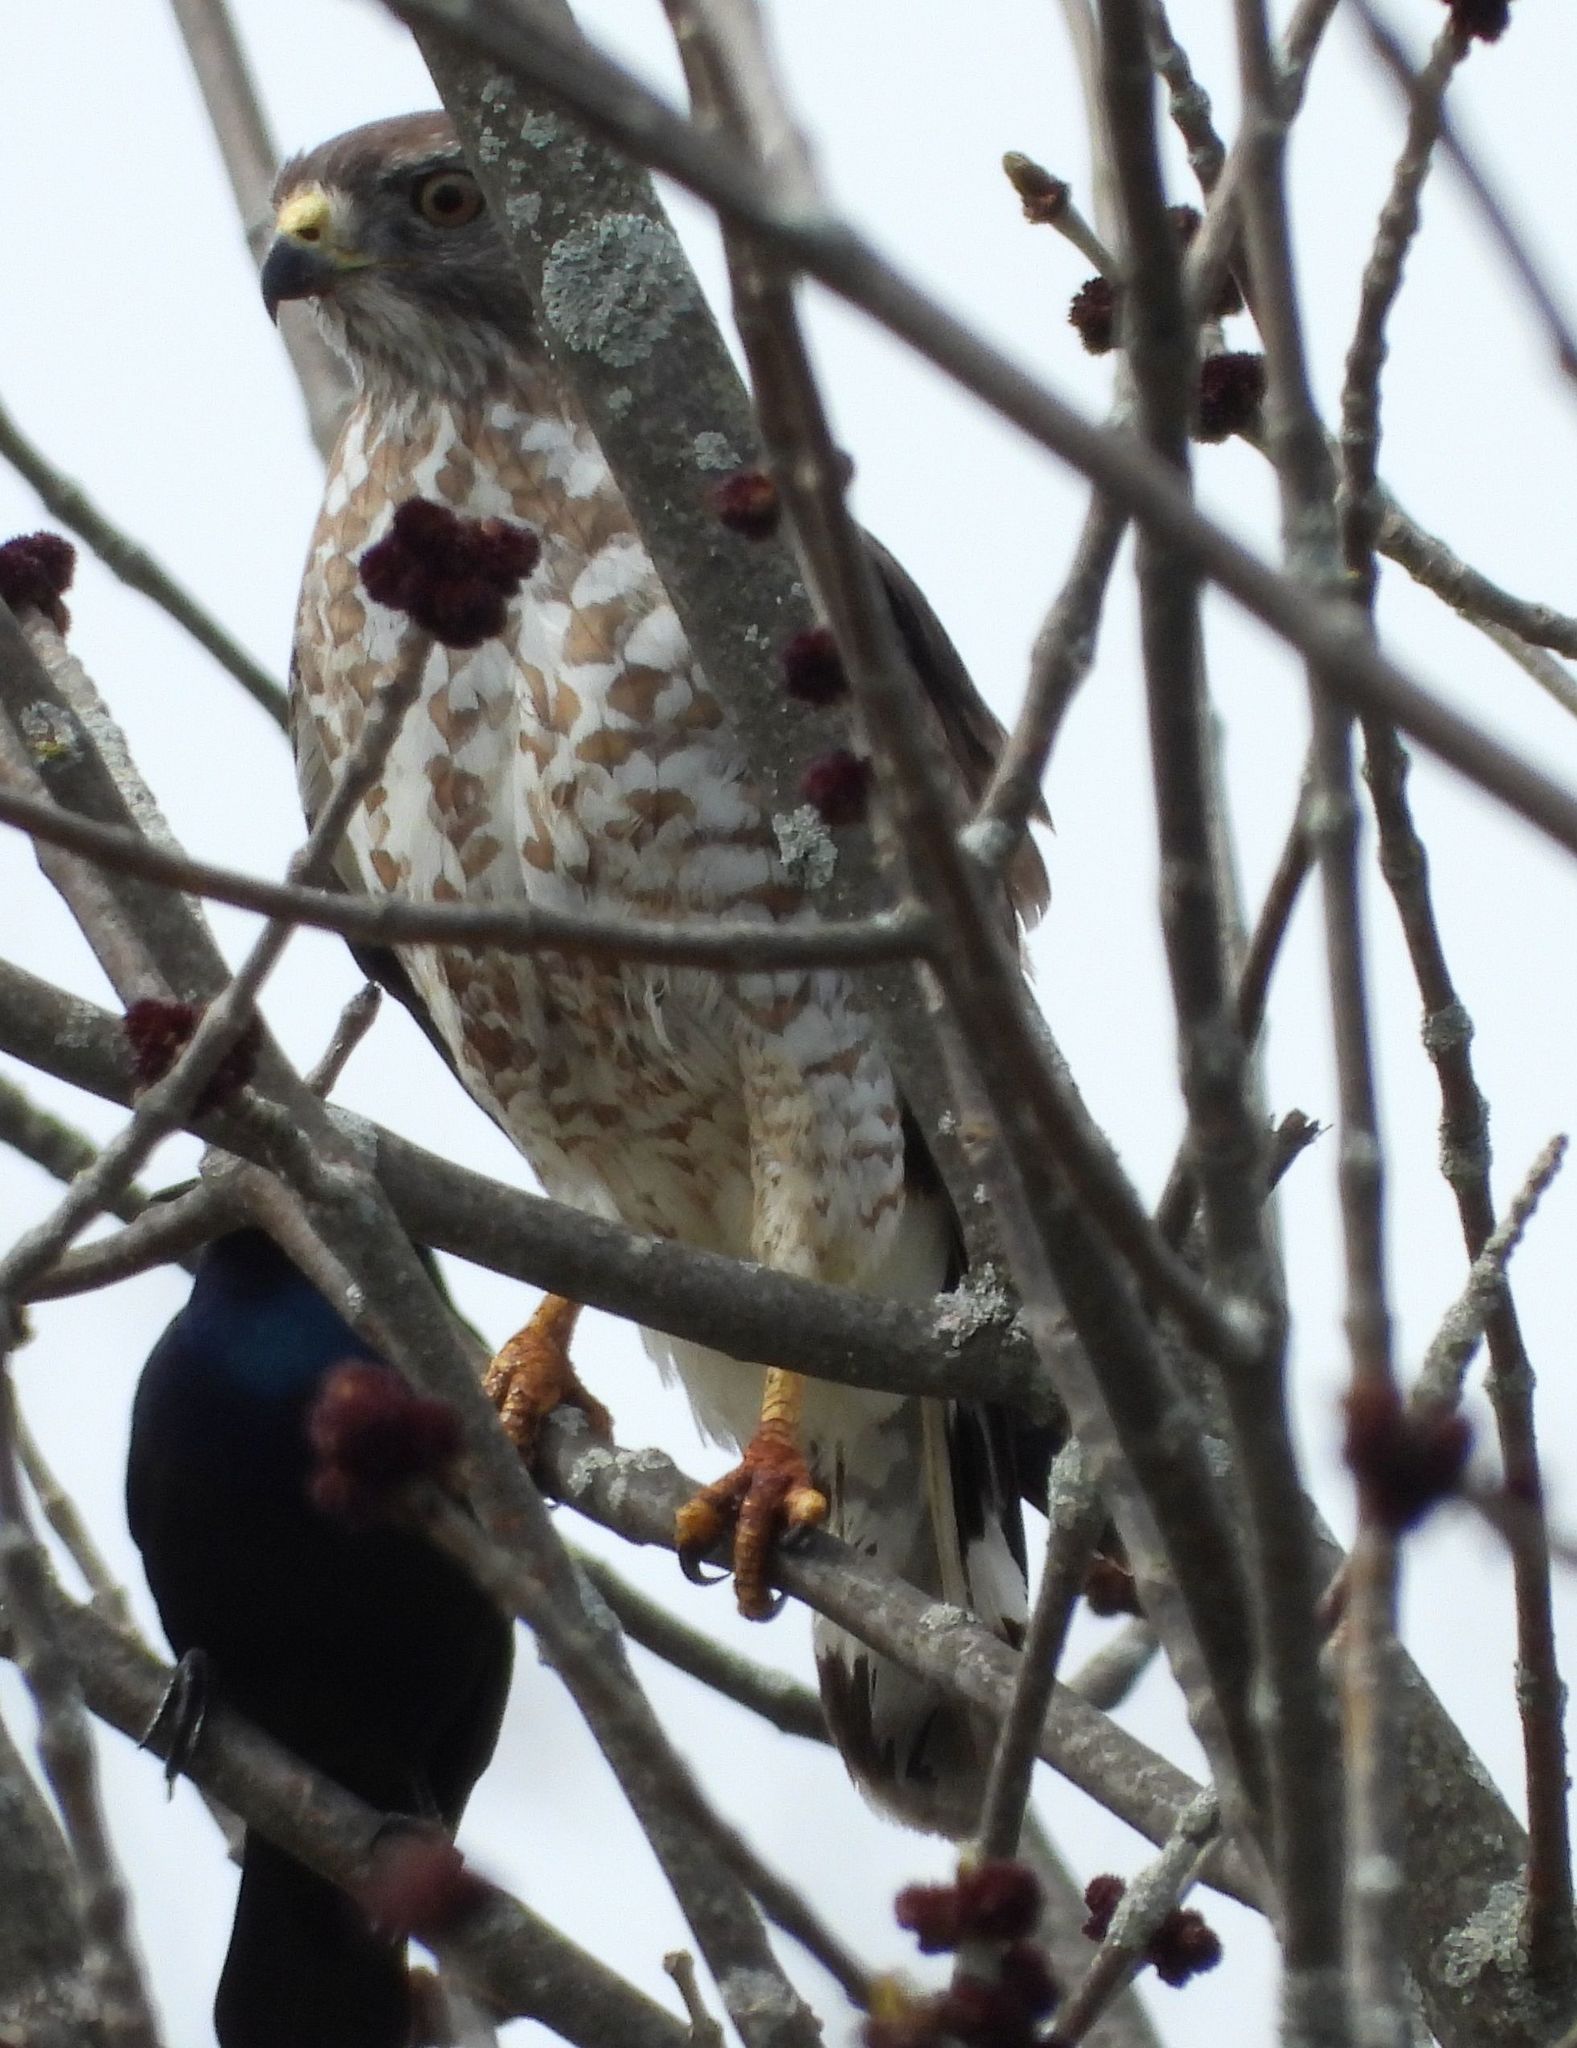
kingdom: Animalia
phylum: Chordata
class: Aves
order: Accipitriformes
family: Accipitridae
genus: Buteo
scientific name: Buteo platypterus
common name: Broad-winged hawk
